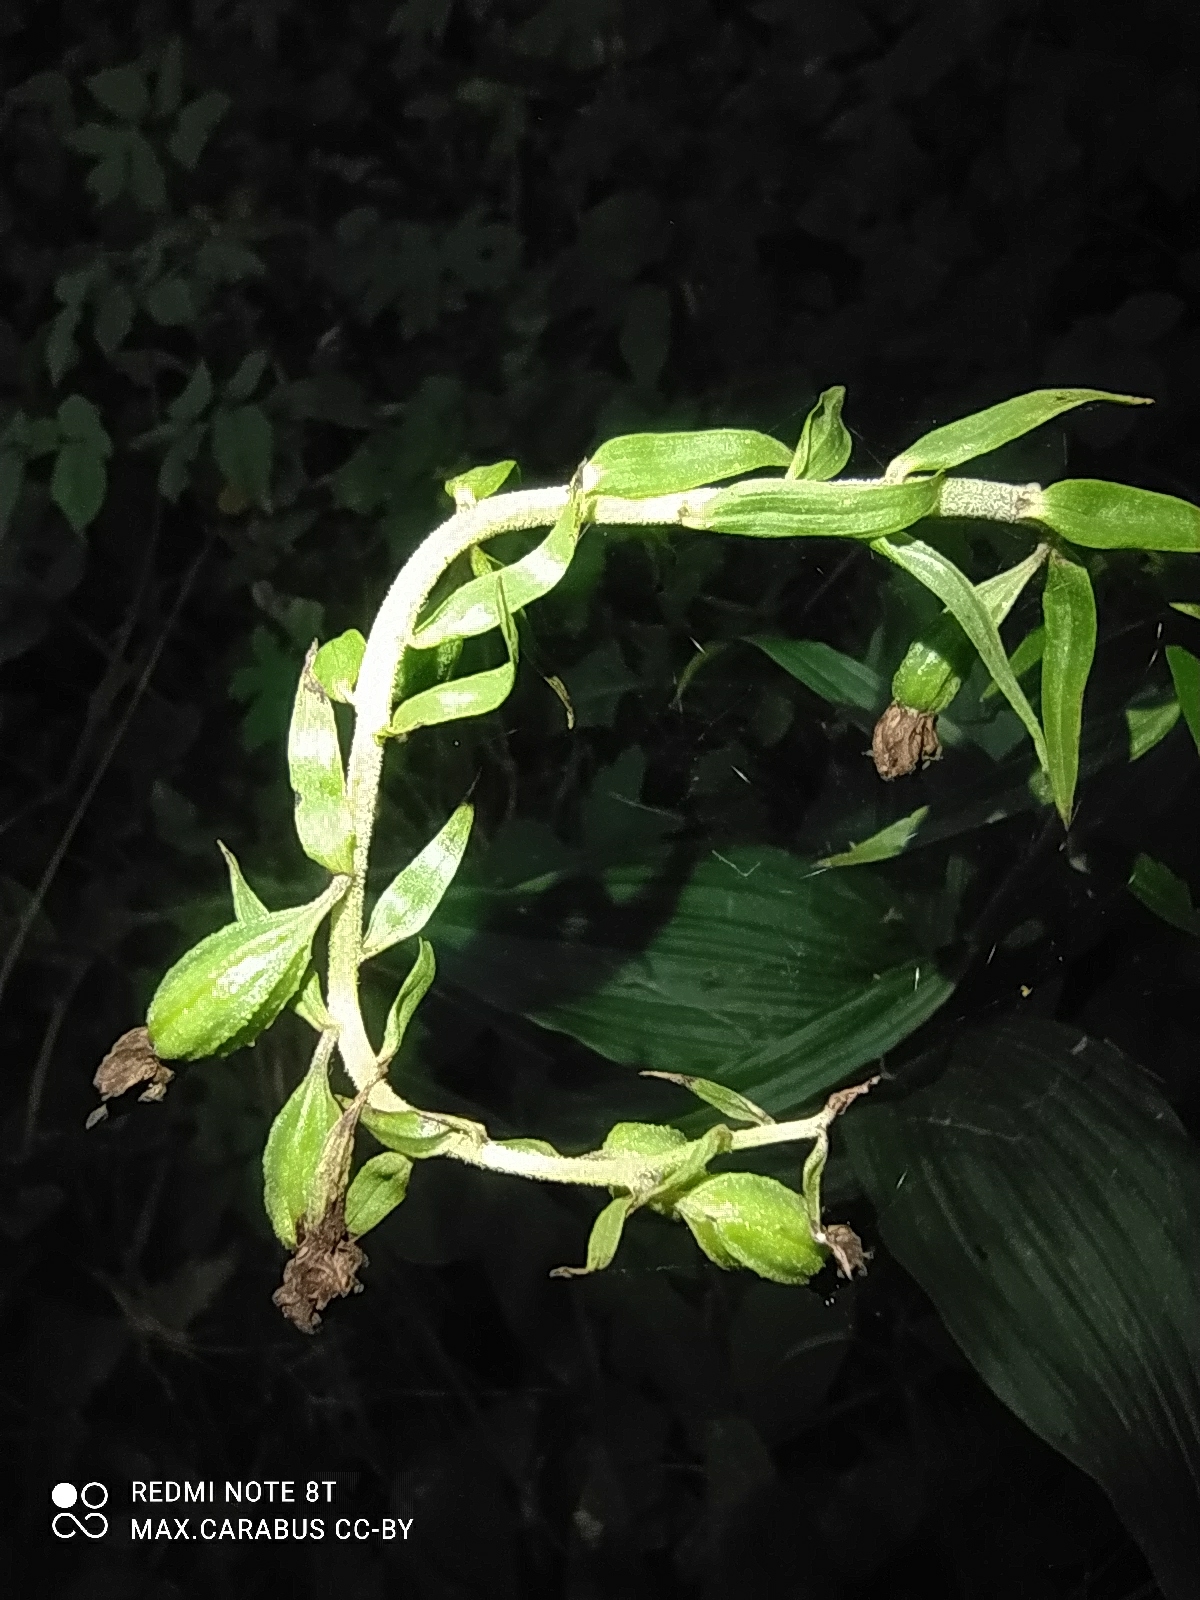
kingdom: Plantae
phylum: Tracheophyta
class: Liliopsida
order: Asparagales
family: Orchidaceae
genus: Epipactis
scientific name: Epipactis helleborine
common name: Broad-leaved helleborine
